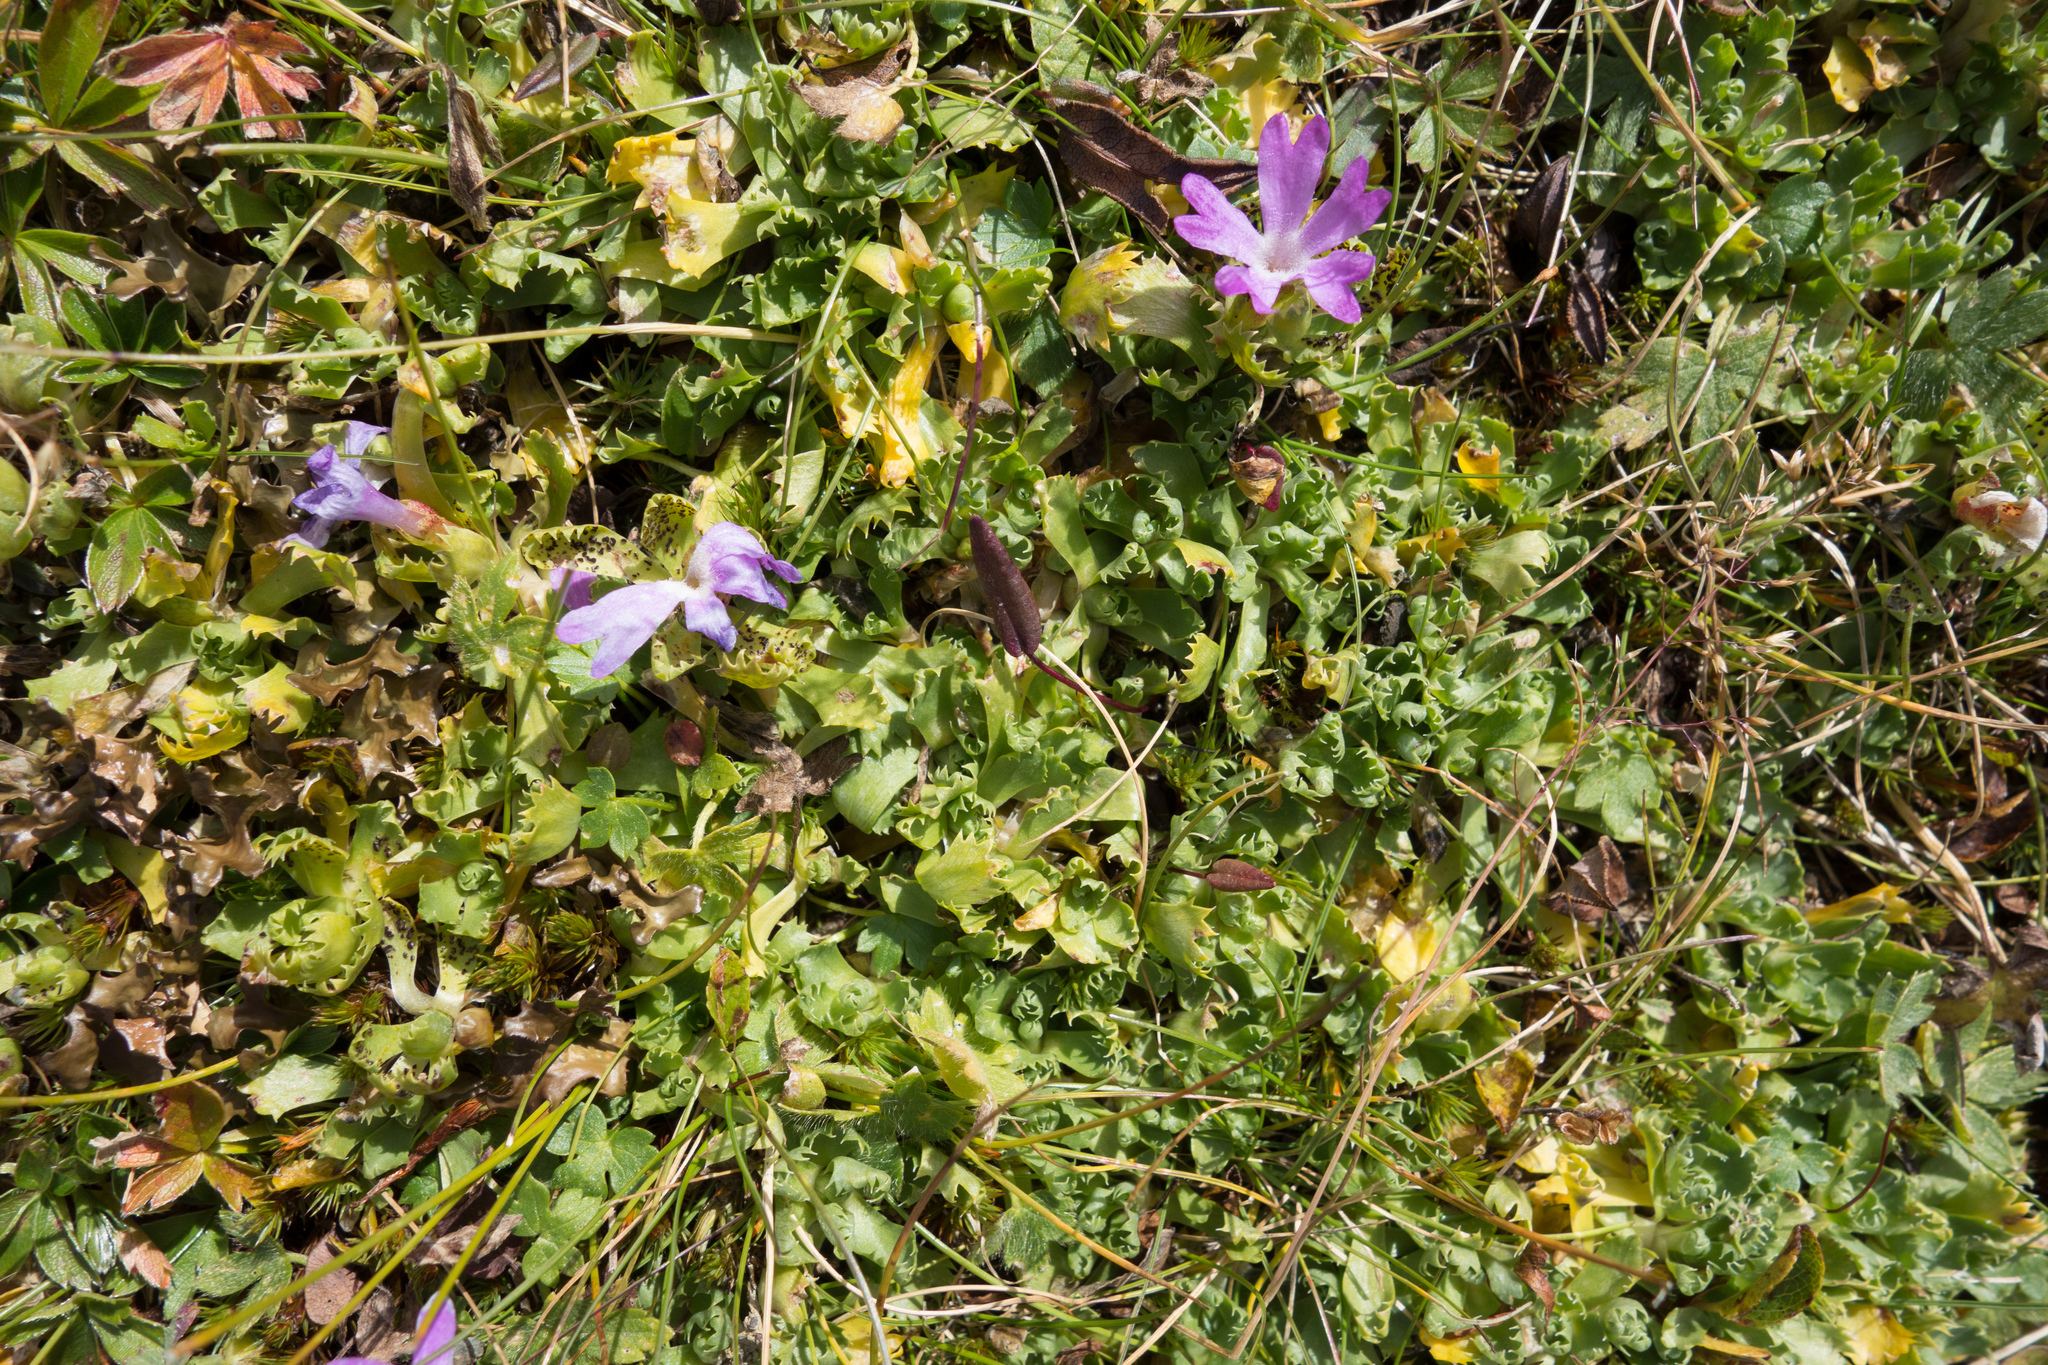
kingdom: Plantae
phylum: Tracheophyta
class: Magnoliopsida
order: Ericales
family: Primulaceae
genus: Primula
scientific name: Primula minima
